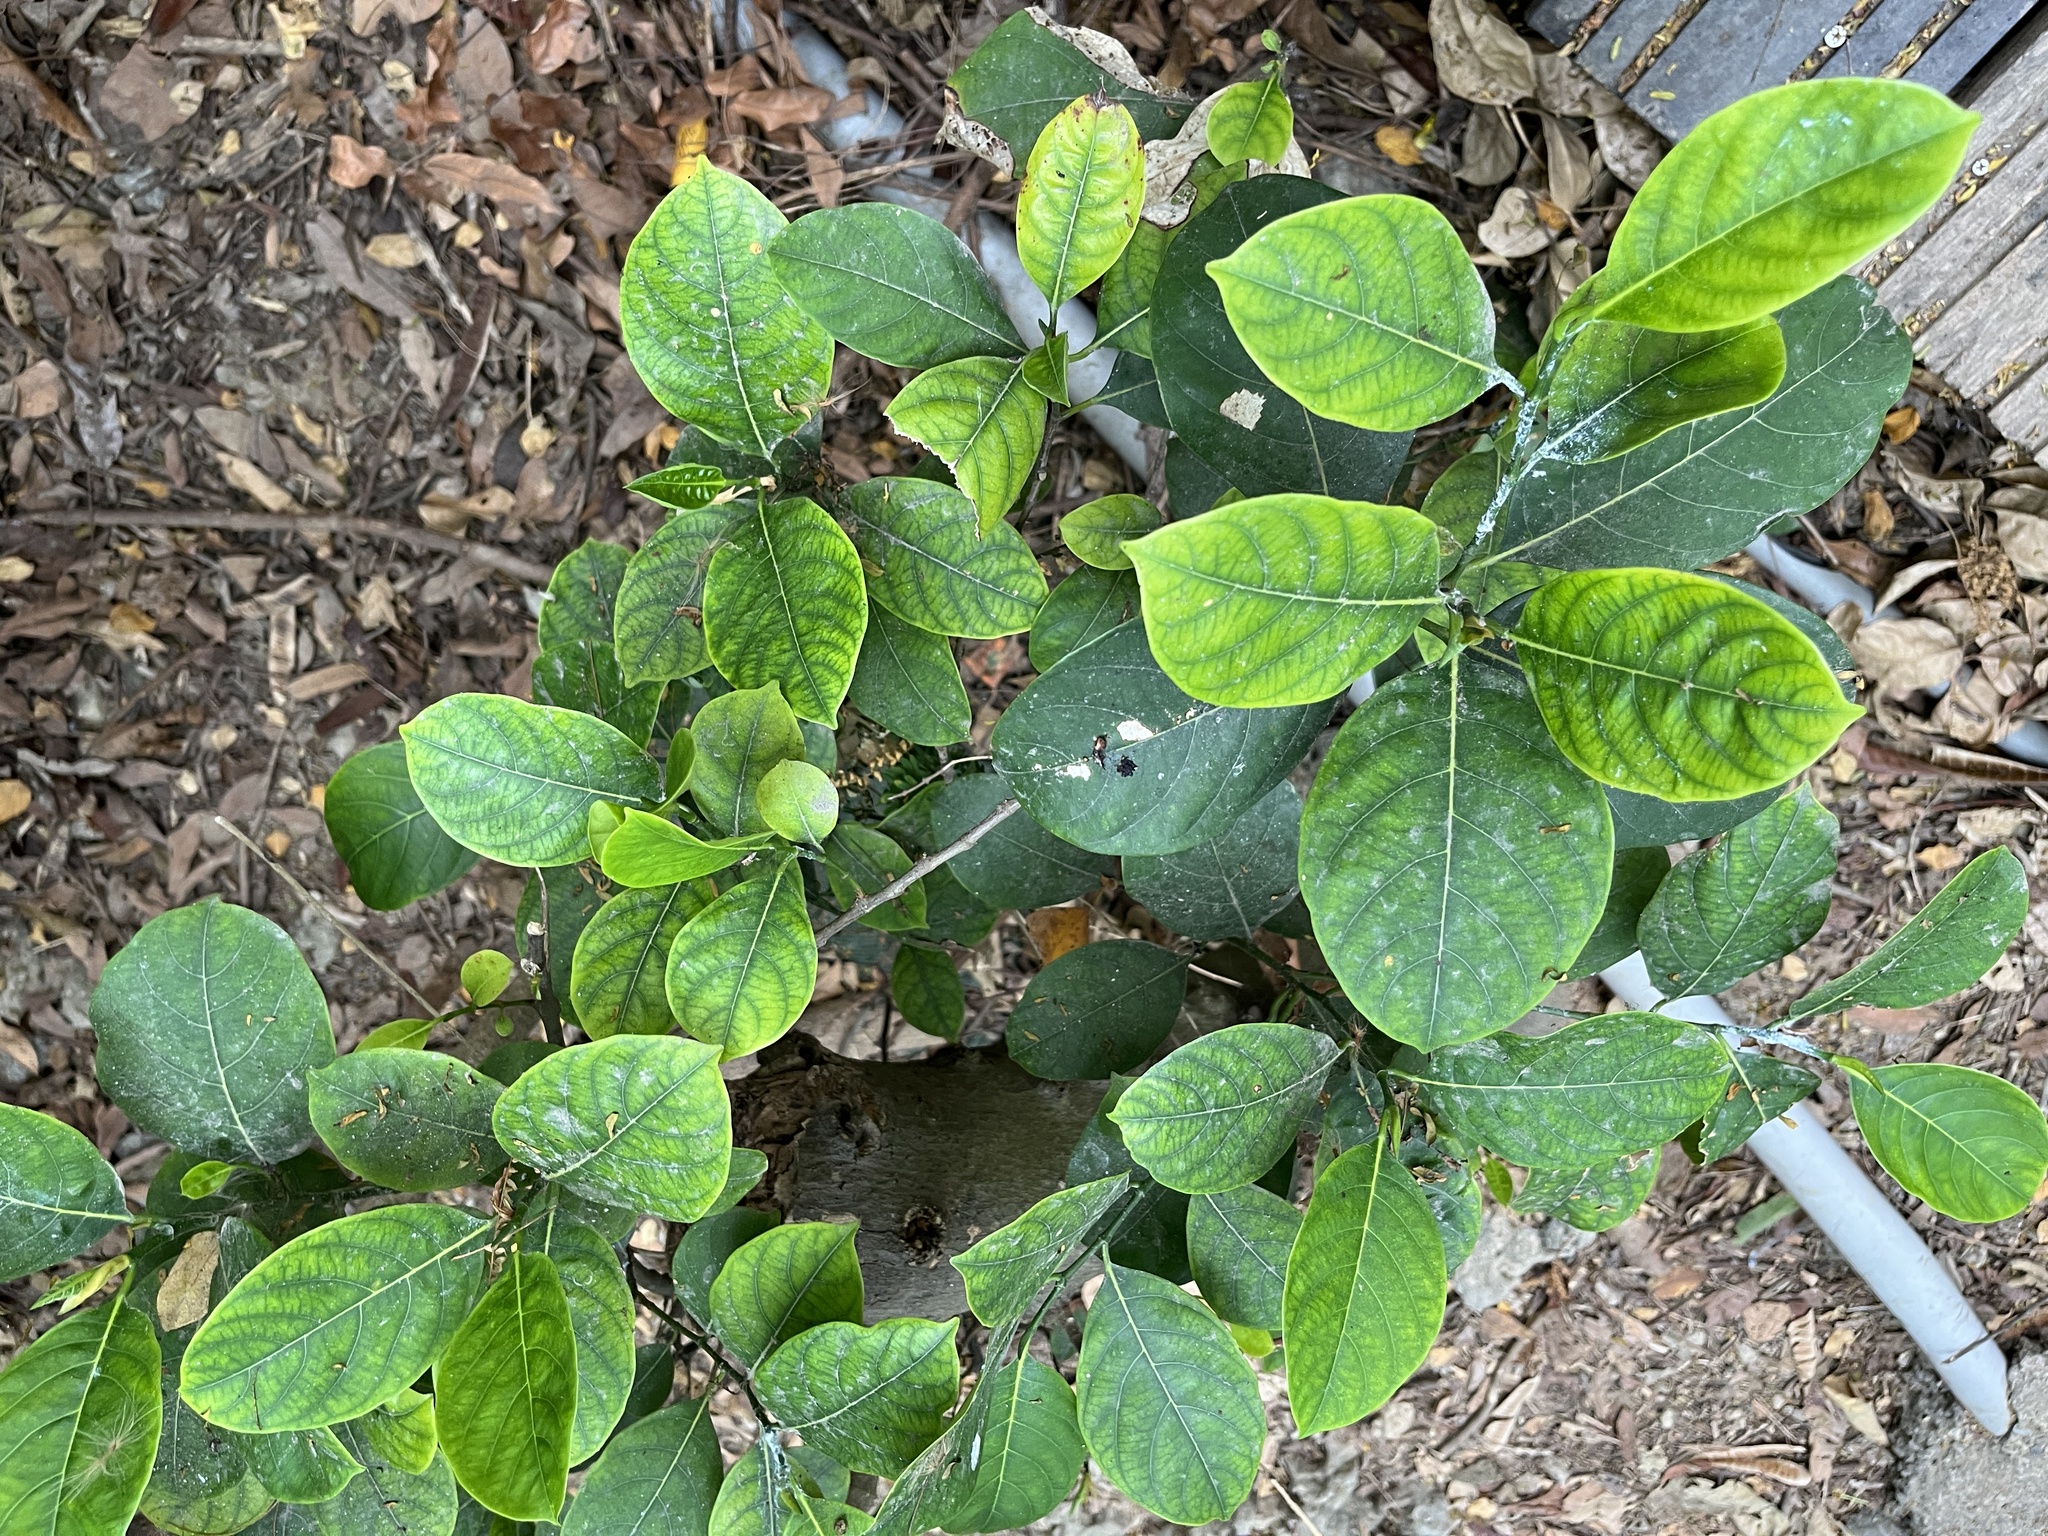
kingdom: Plantae
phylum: Tracheophyta
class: Magnoliopsida
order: Rosales
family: Moraceae
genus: Ficus
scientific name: Ficus septica
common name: Septic fig
